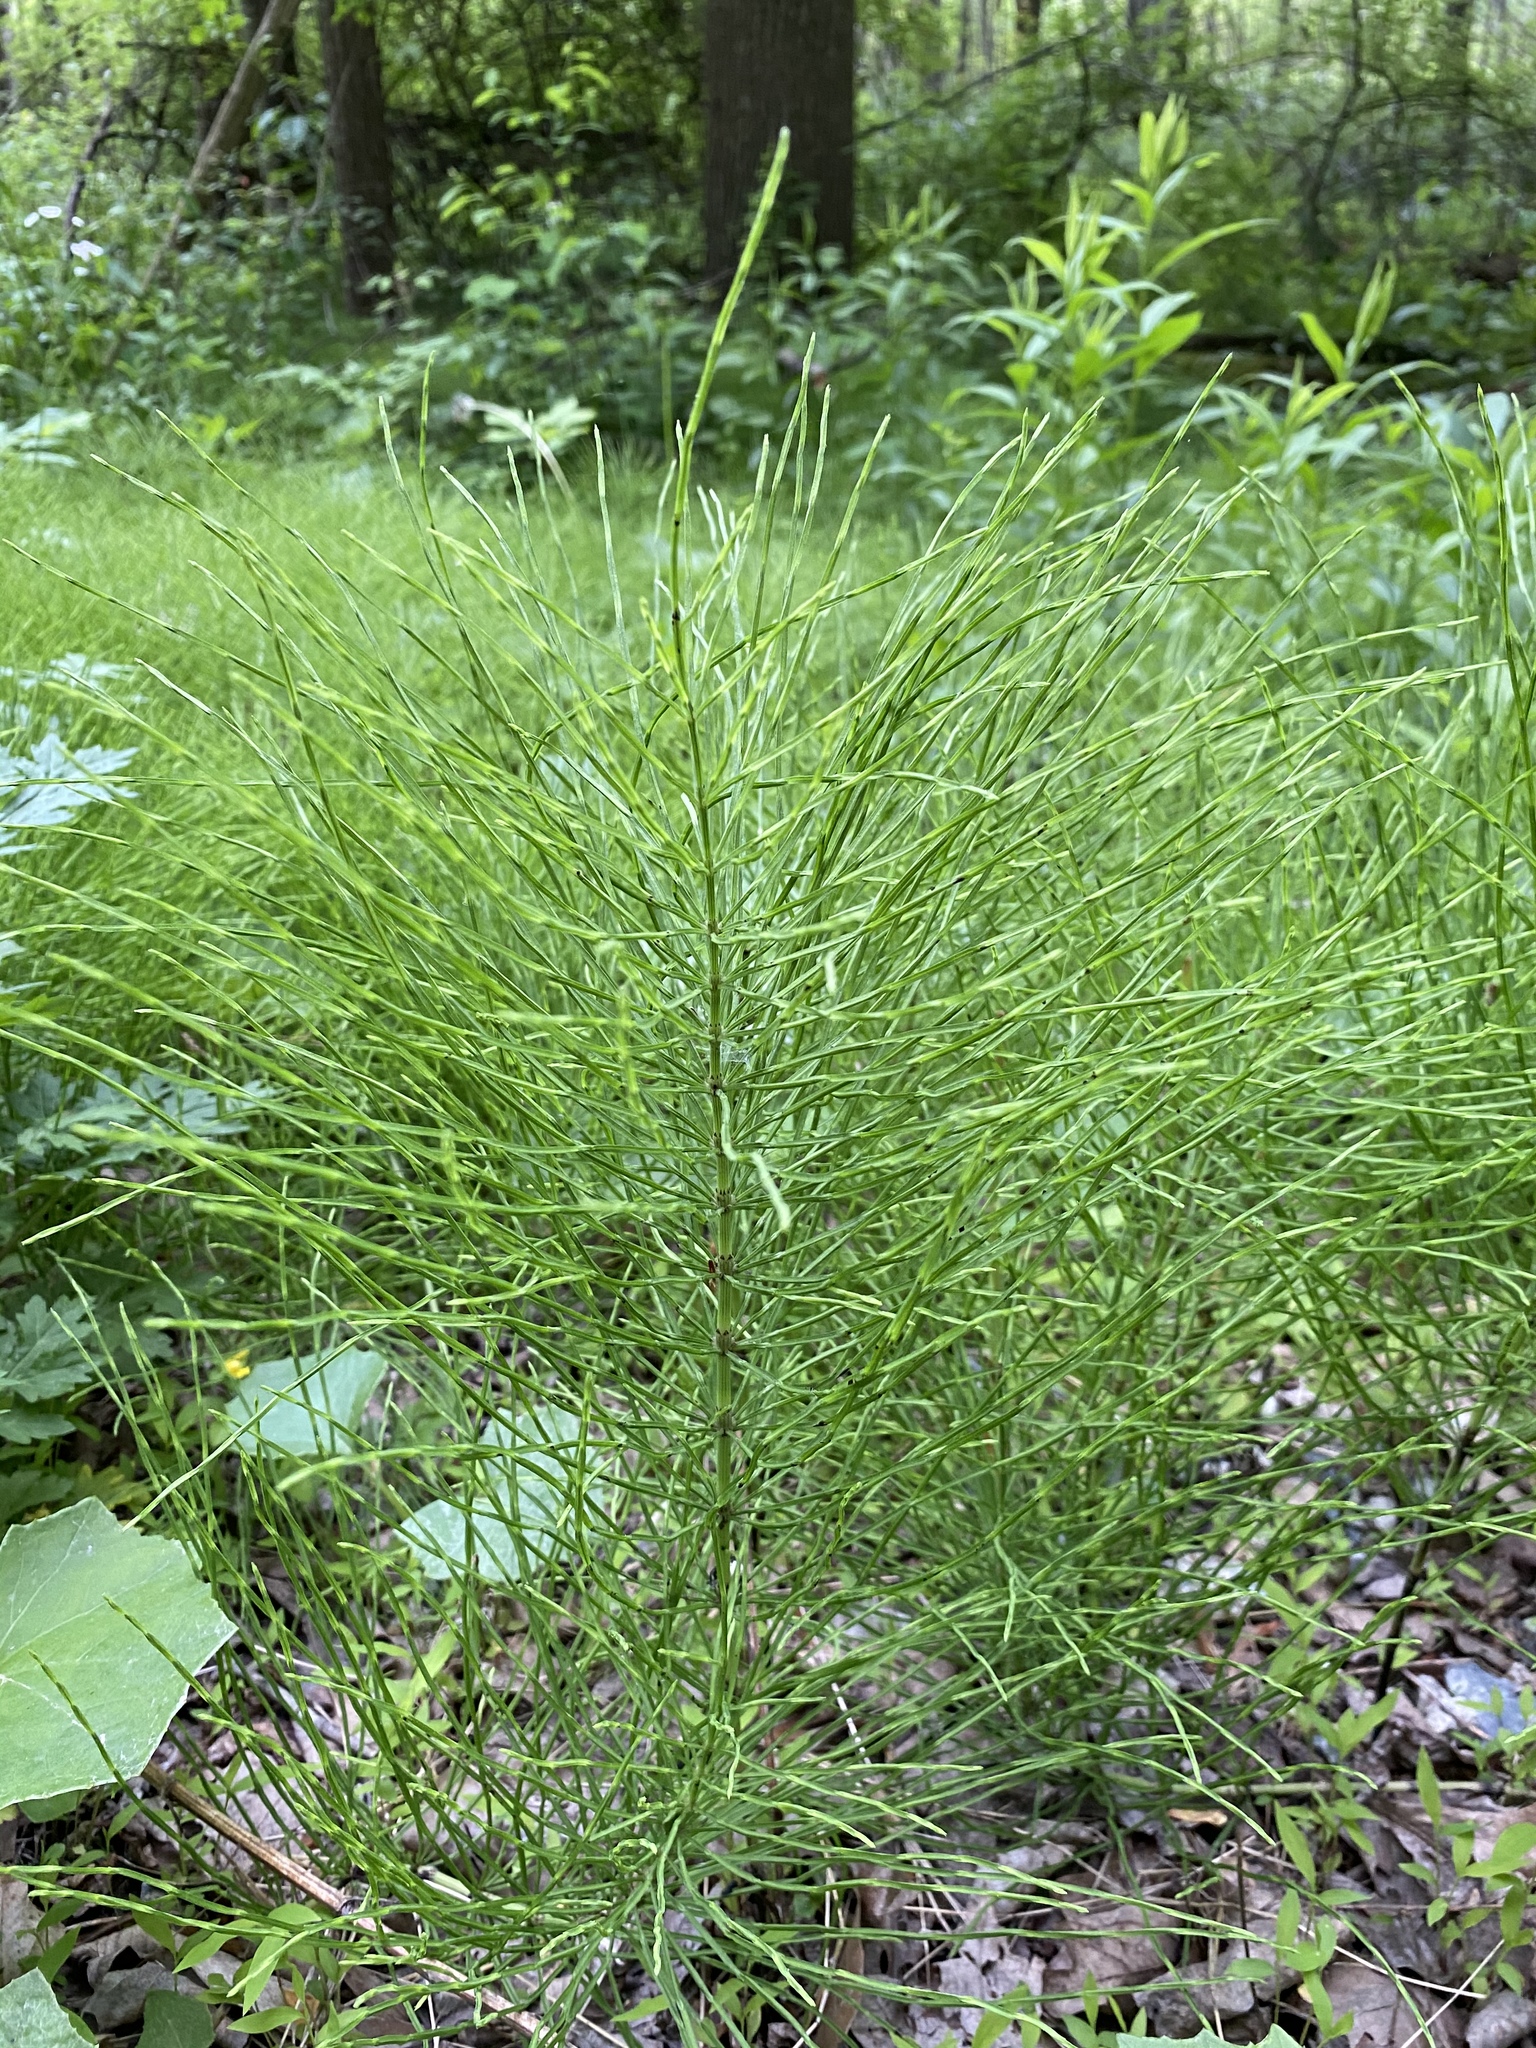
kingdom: Plantae
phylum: Tracheophyta
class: Polypodiopsida
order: Equisetales
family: Equisetaceae
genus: Equisetum
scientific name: Equisetum arvense
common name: Field horsetail
